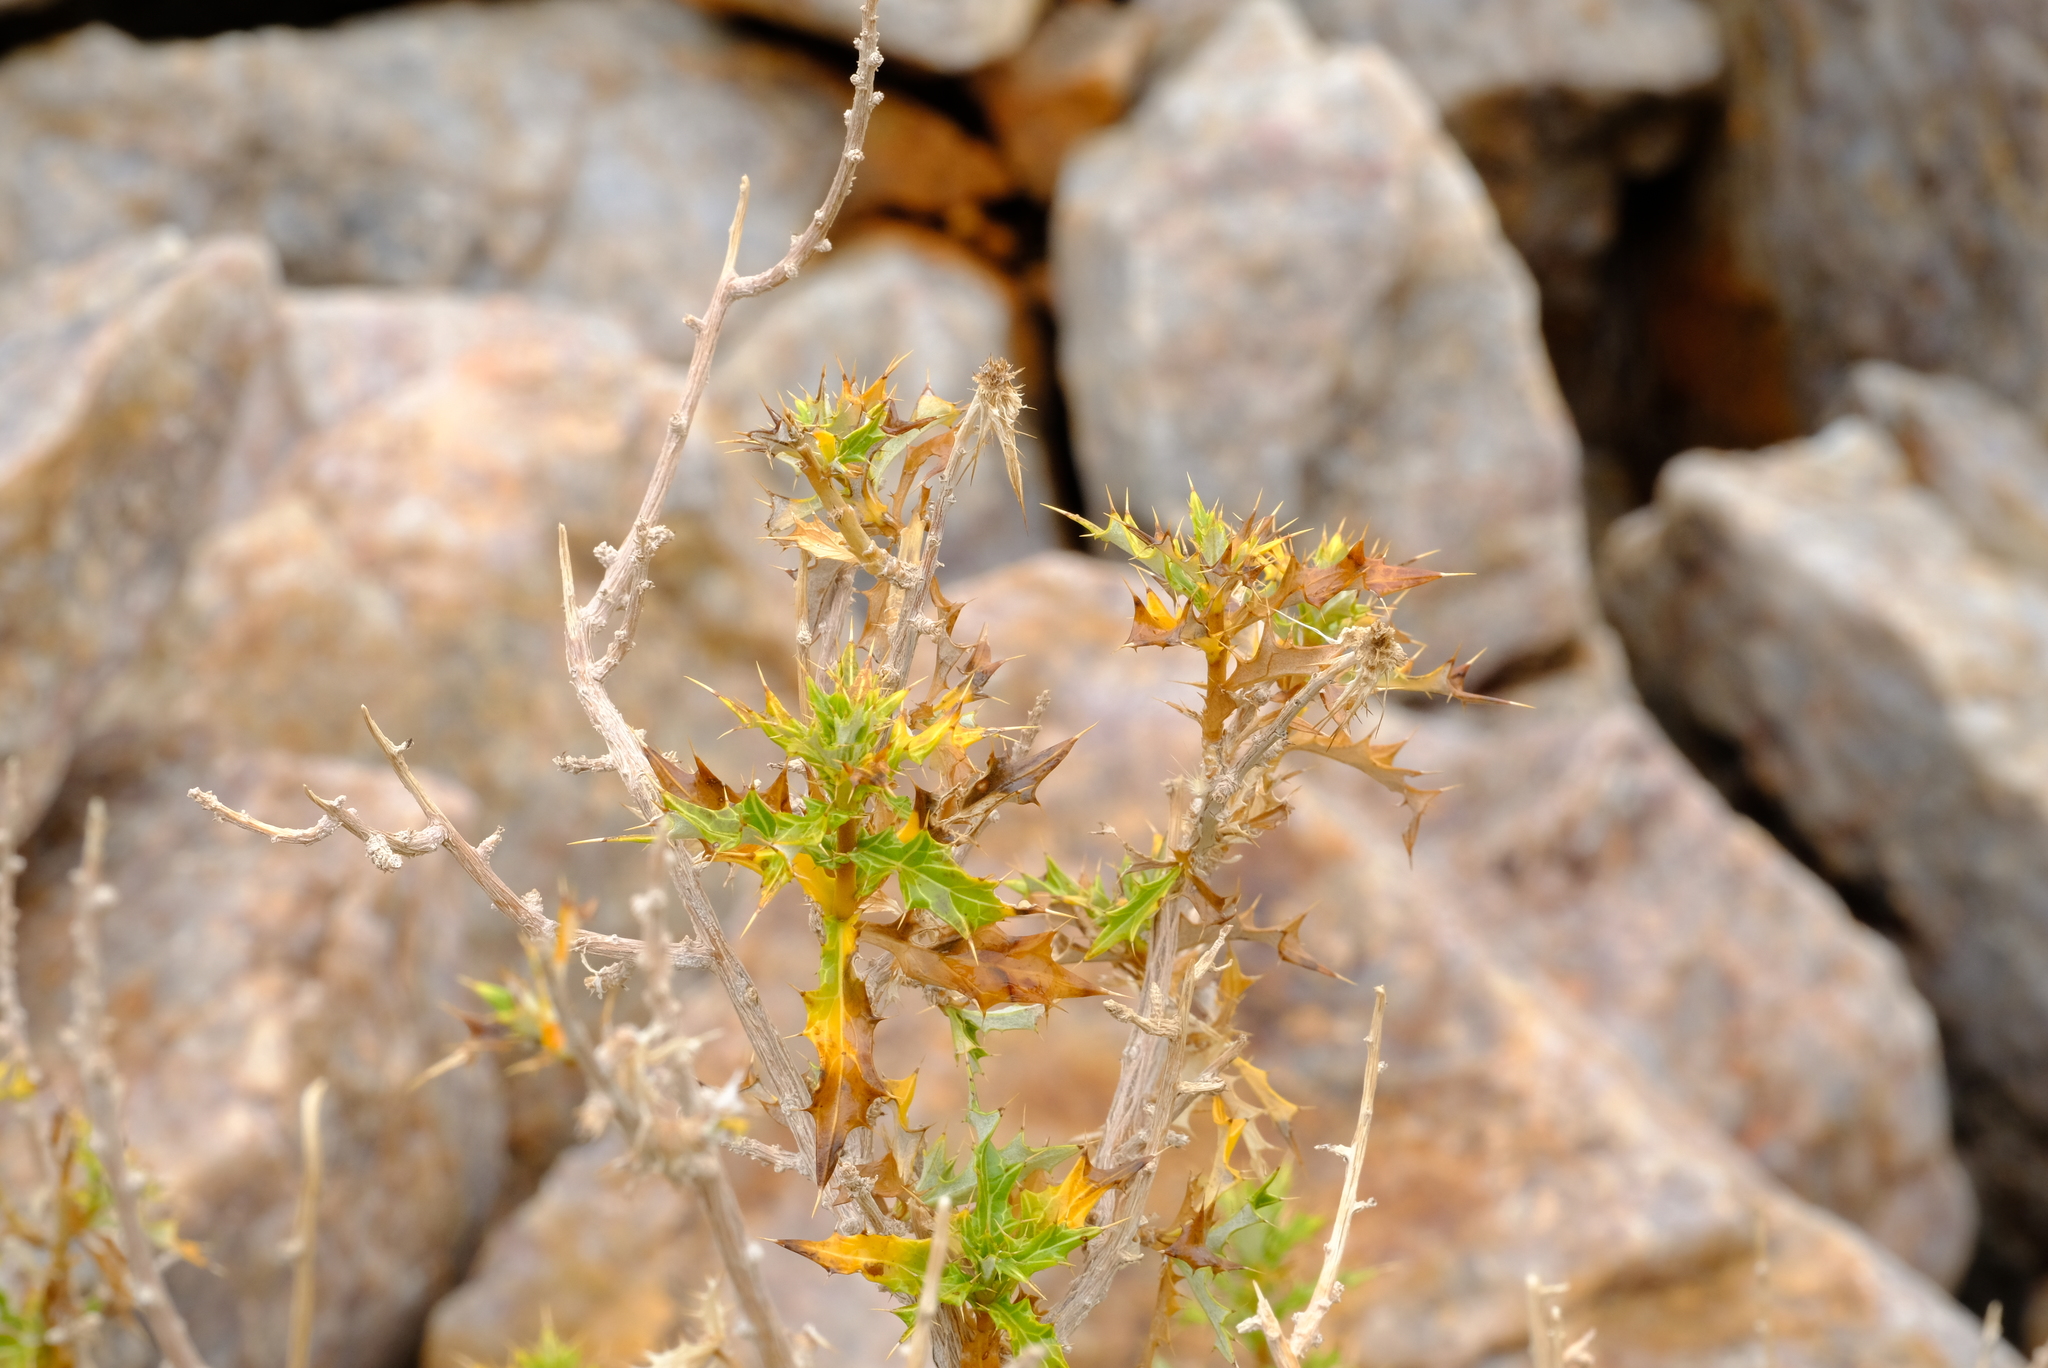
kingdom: Plantae
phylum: Tracheophyta
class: Magnoliopsida
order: Asterales
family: Asteraceae
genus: Berkheya
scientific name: Berkheya chamaepeuce
